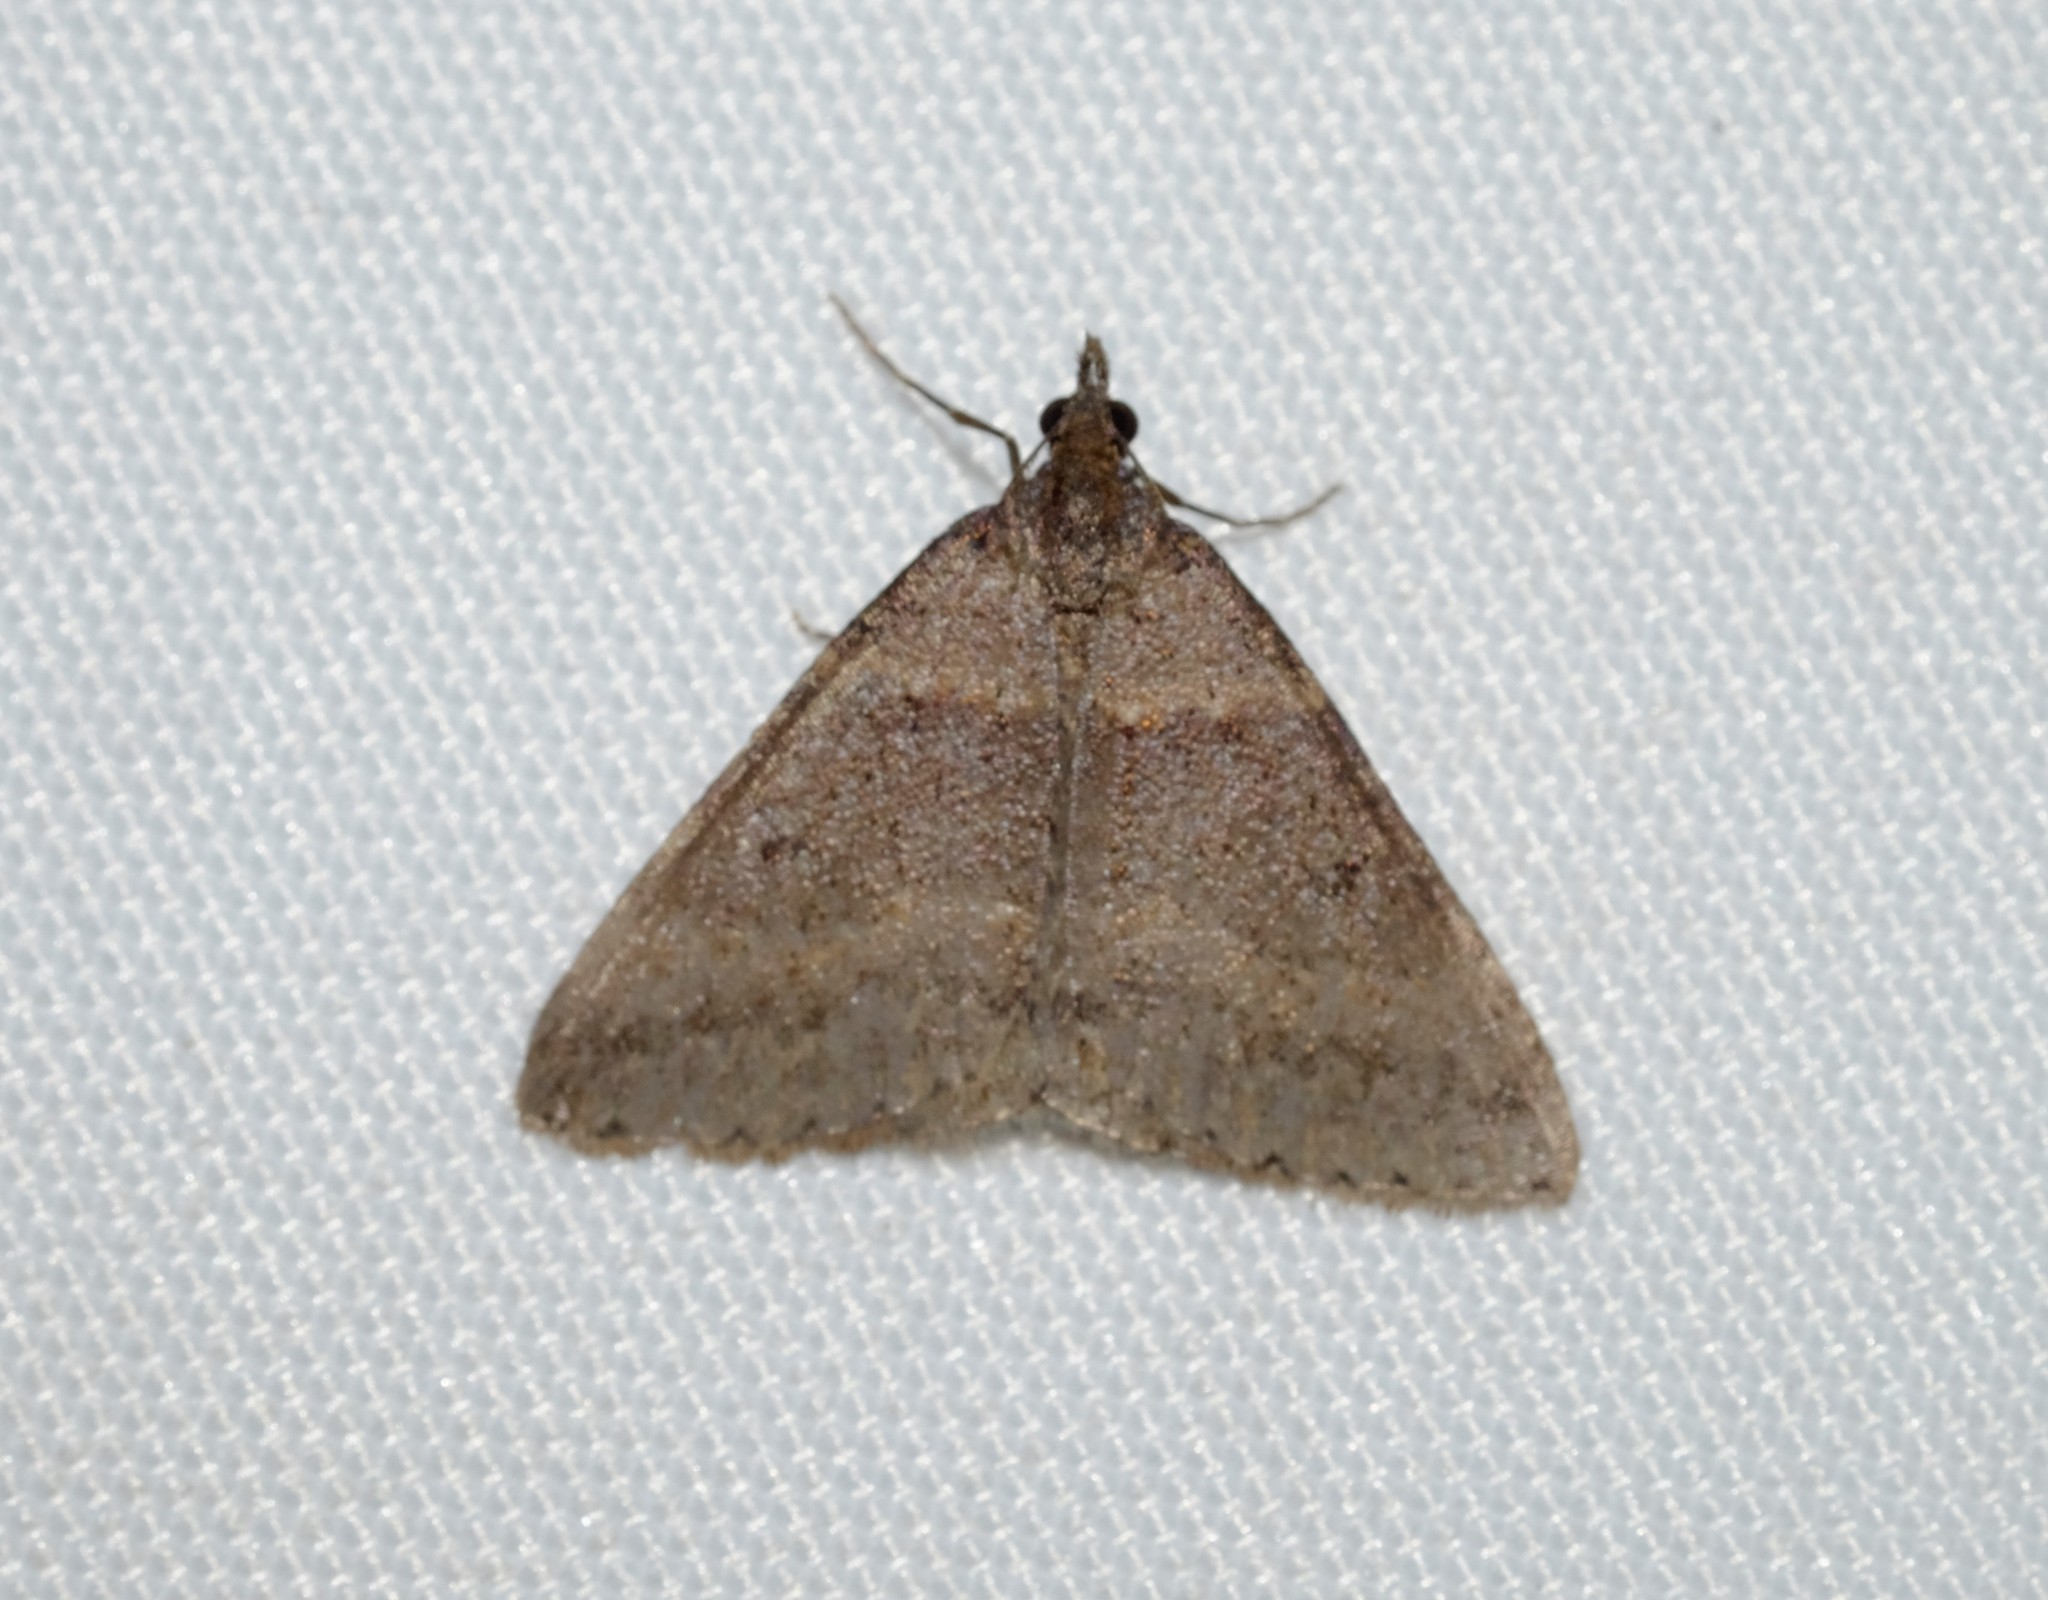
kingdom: Animalia
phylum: Arthropoda
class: Insecta
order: Lepidoptera
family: Geometridae
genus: Dichromodes
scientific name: Dichromodes atrosignata
